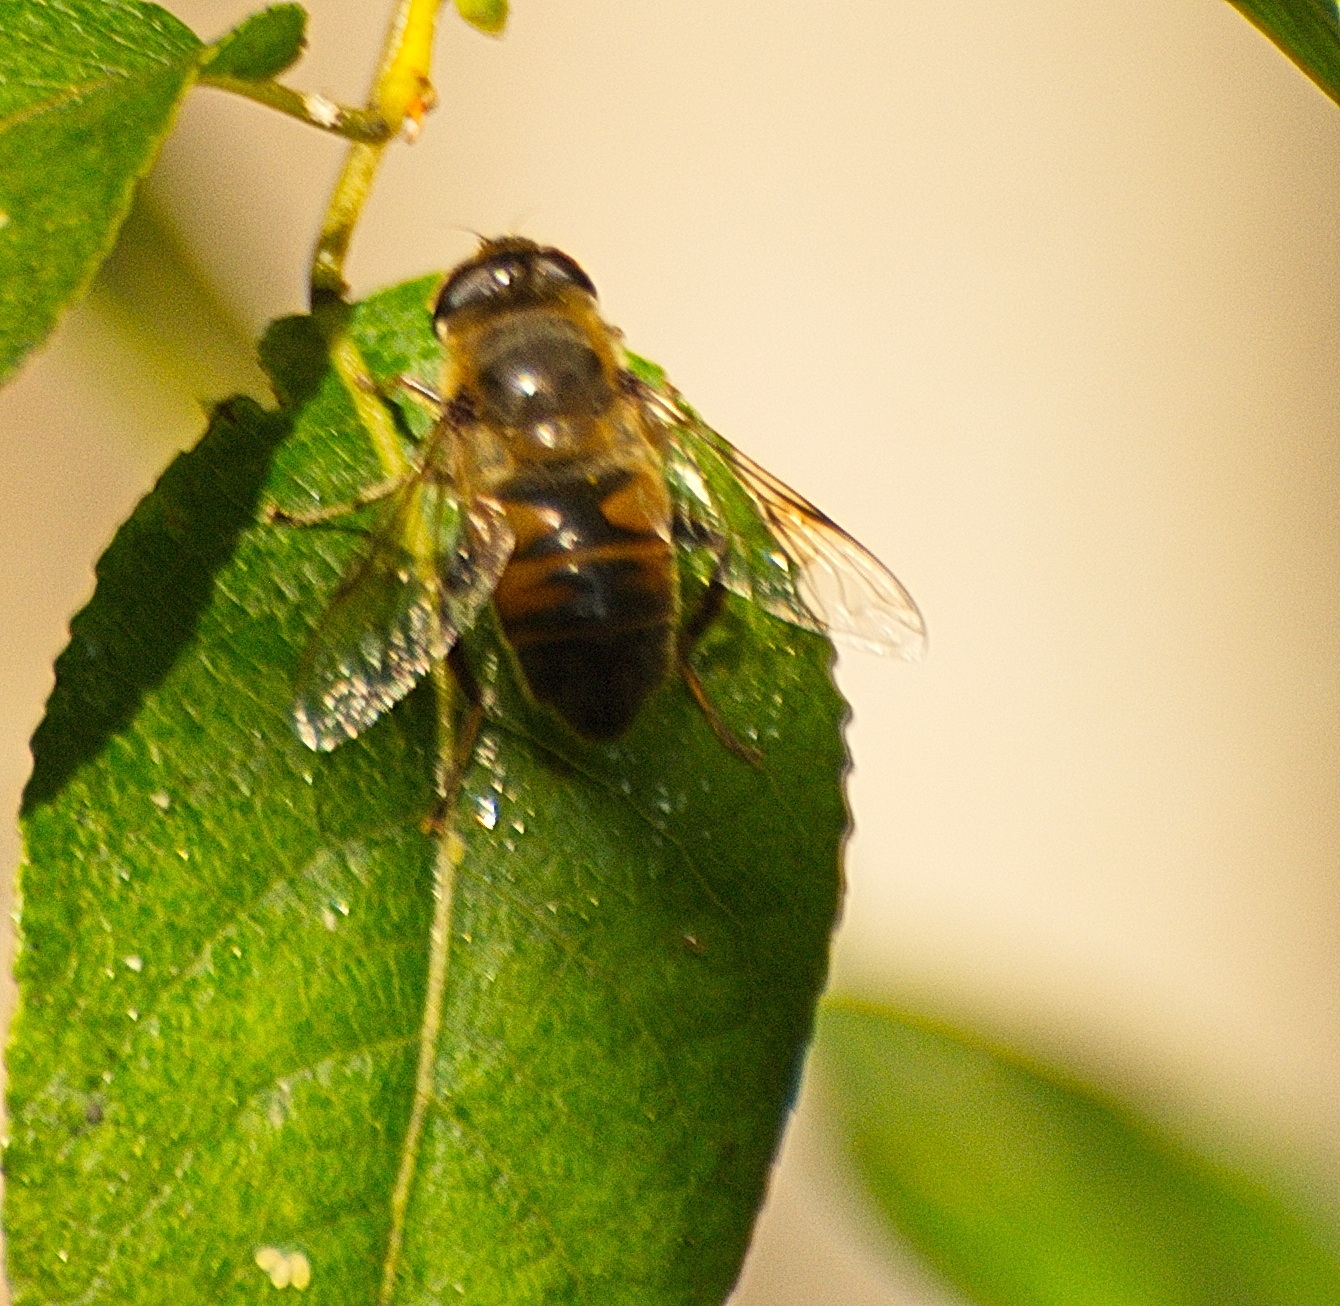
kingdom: Animalia
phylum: Arthropoda
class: Insecta
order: Diptera
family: Syrphidae
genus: Eristalis
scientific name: Eristalis tenax
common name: Drone fly
